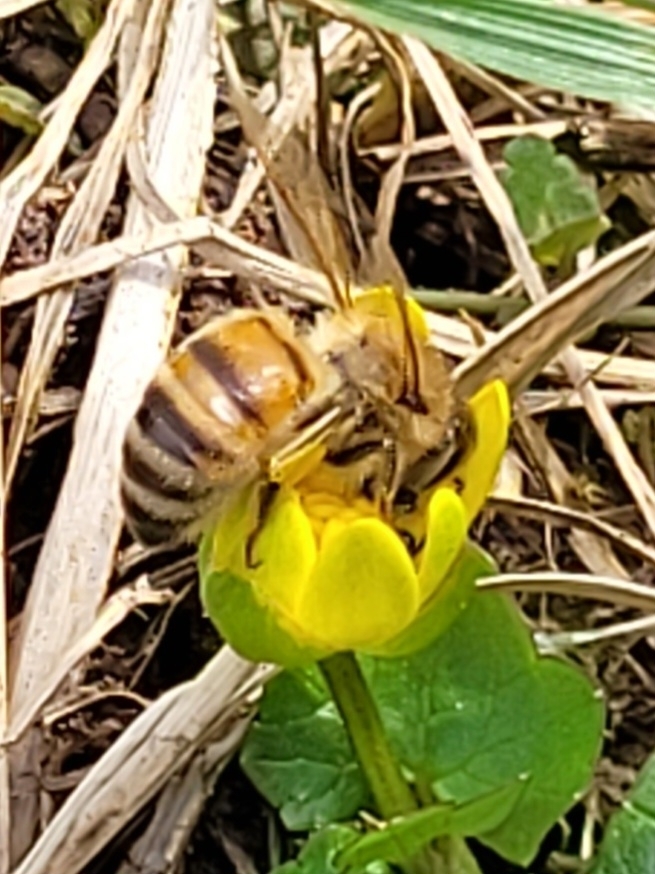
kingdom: Animalia
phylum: Arthropoda
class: Insecta
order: Hymenoptera
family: Apidae
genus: Apis
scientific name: Apis mellifera
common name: Honey bee
